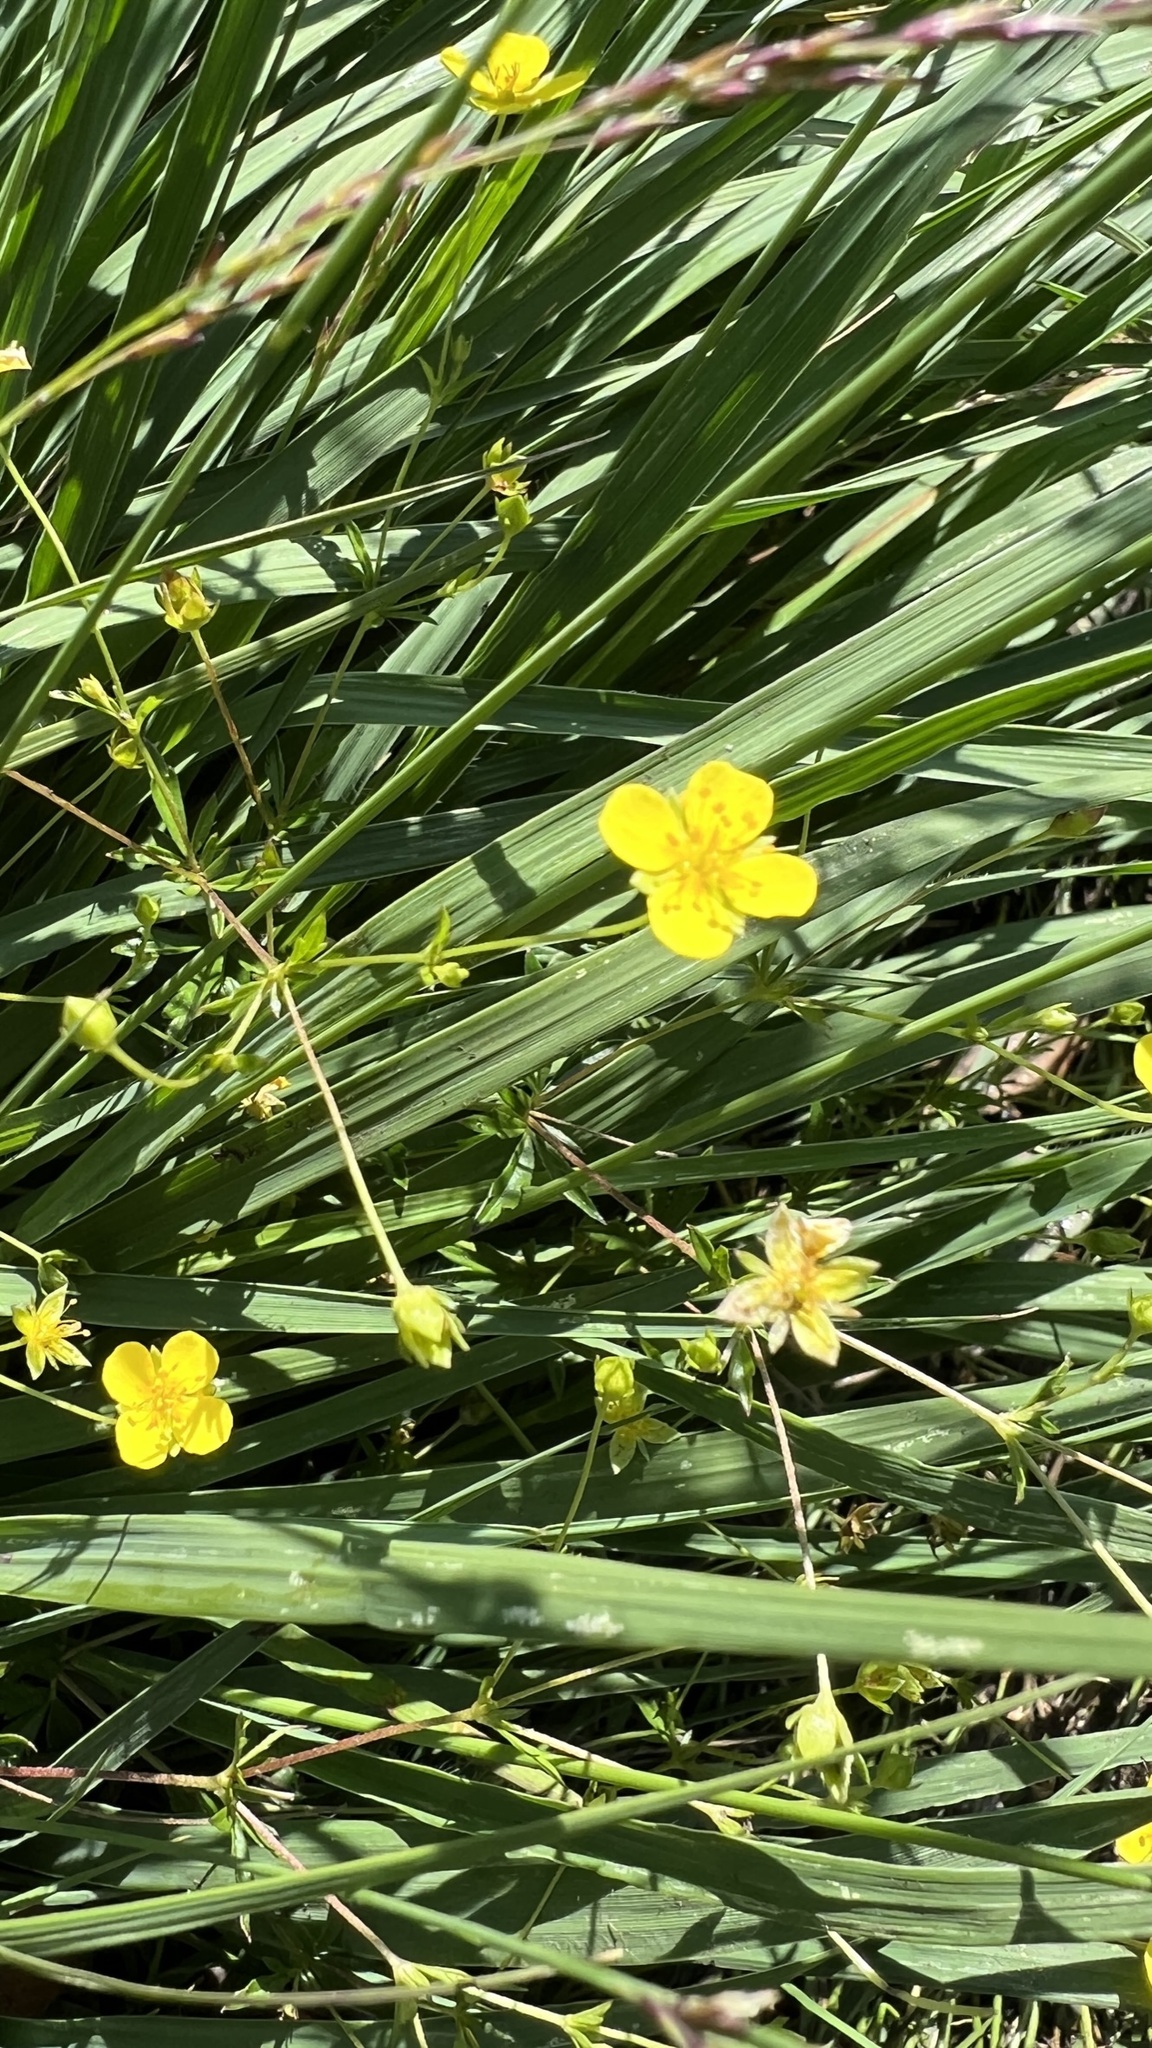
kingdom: Plantae
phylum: Tracheophyta
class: Magnoliopsida
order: Rosales
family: Rosaceae
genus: Potentilla
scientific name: Potentilla erecta
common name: Tormentil
